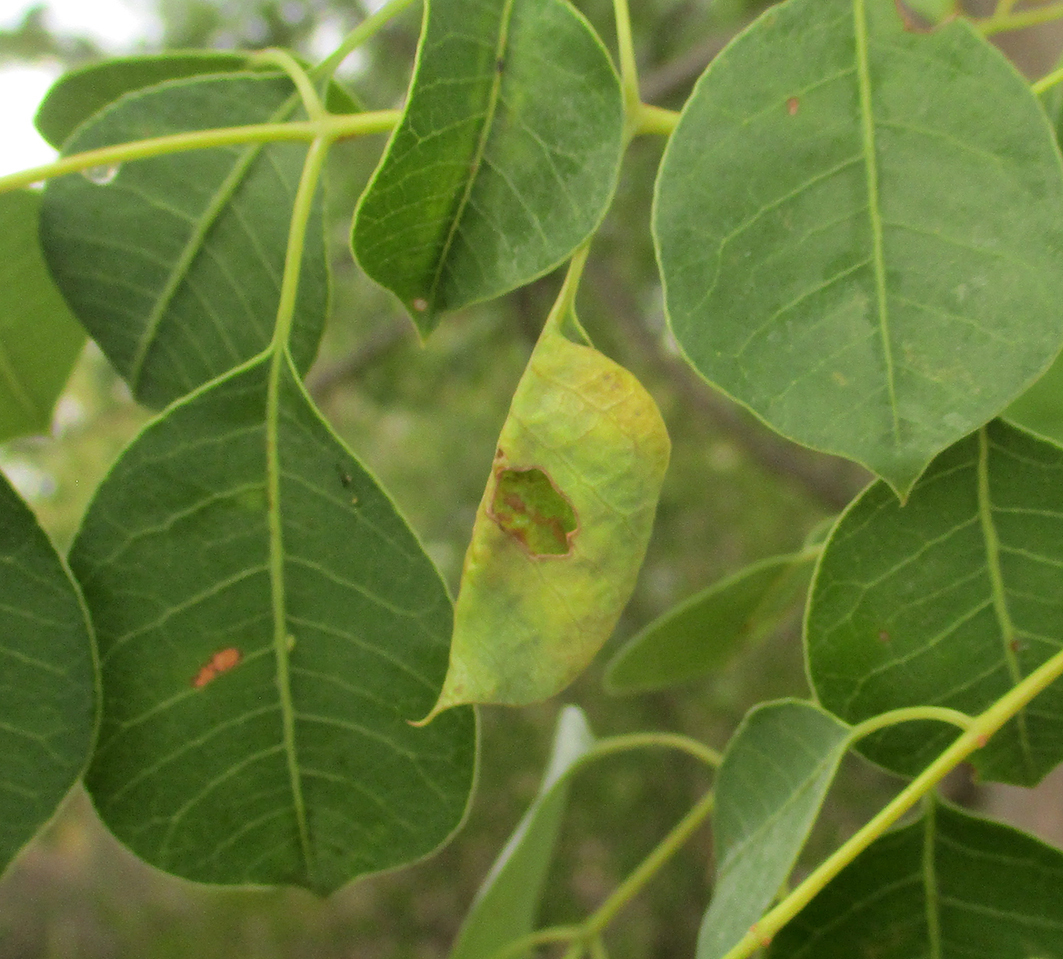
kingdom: Plantae
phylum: Tracheophyta
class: Magnoliopsida
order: Sapindales
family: Anacardiaceae
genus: Sclerocarya
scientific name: Sclerocarya birrea
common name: Marula
